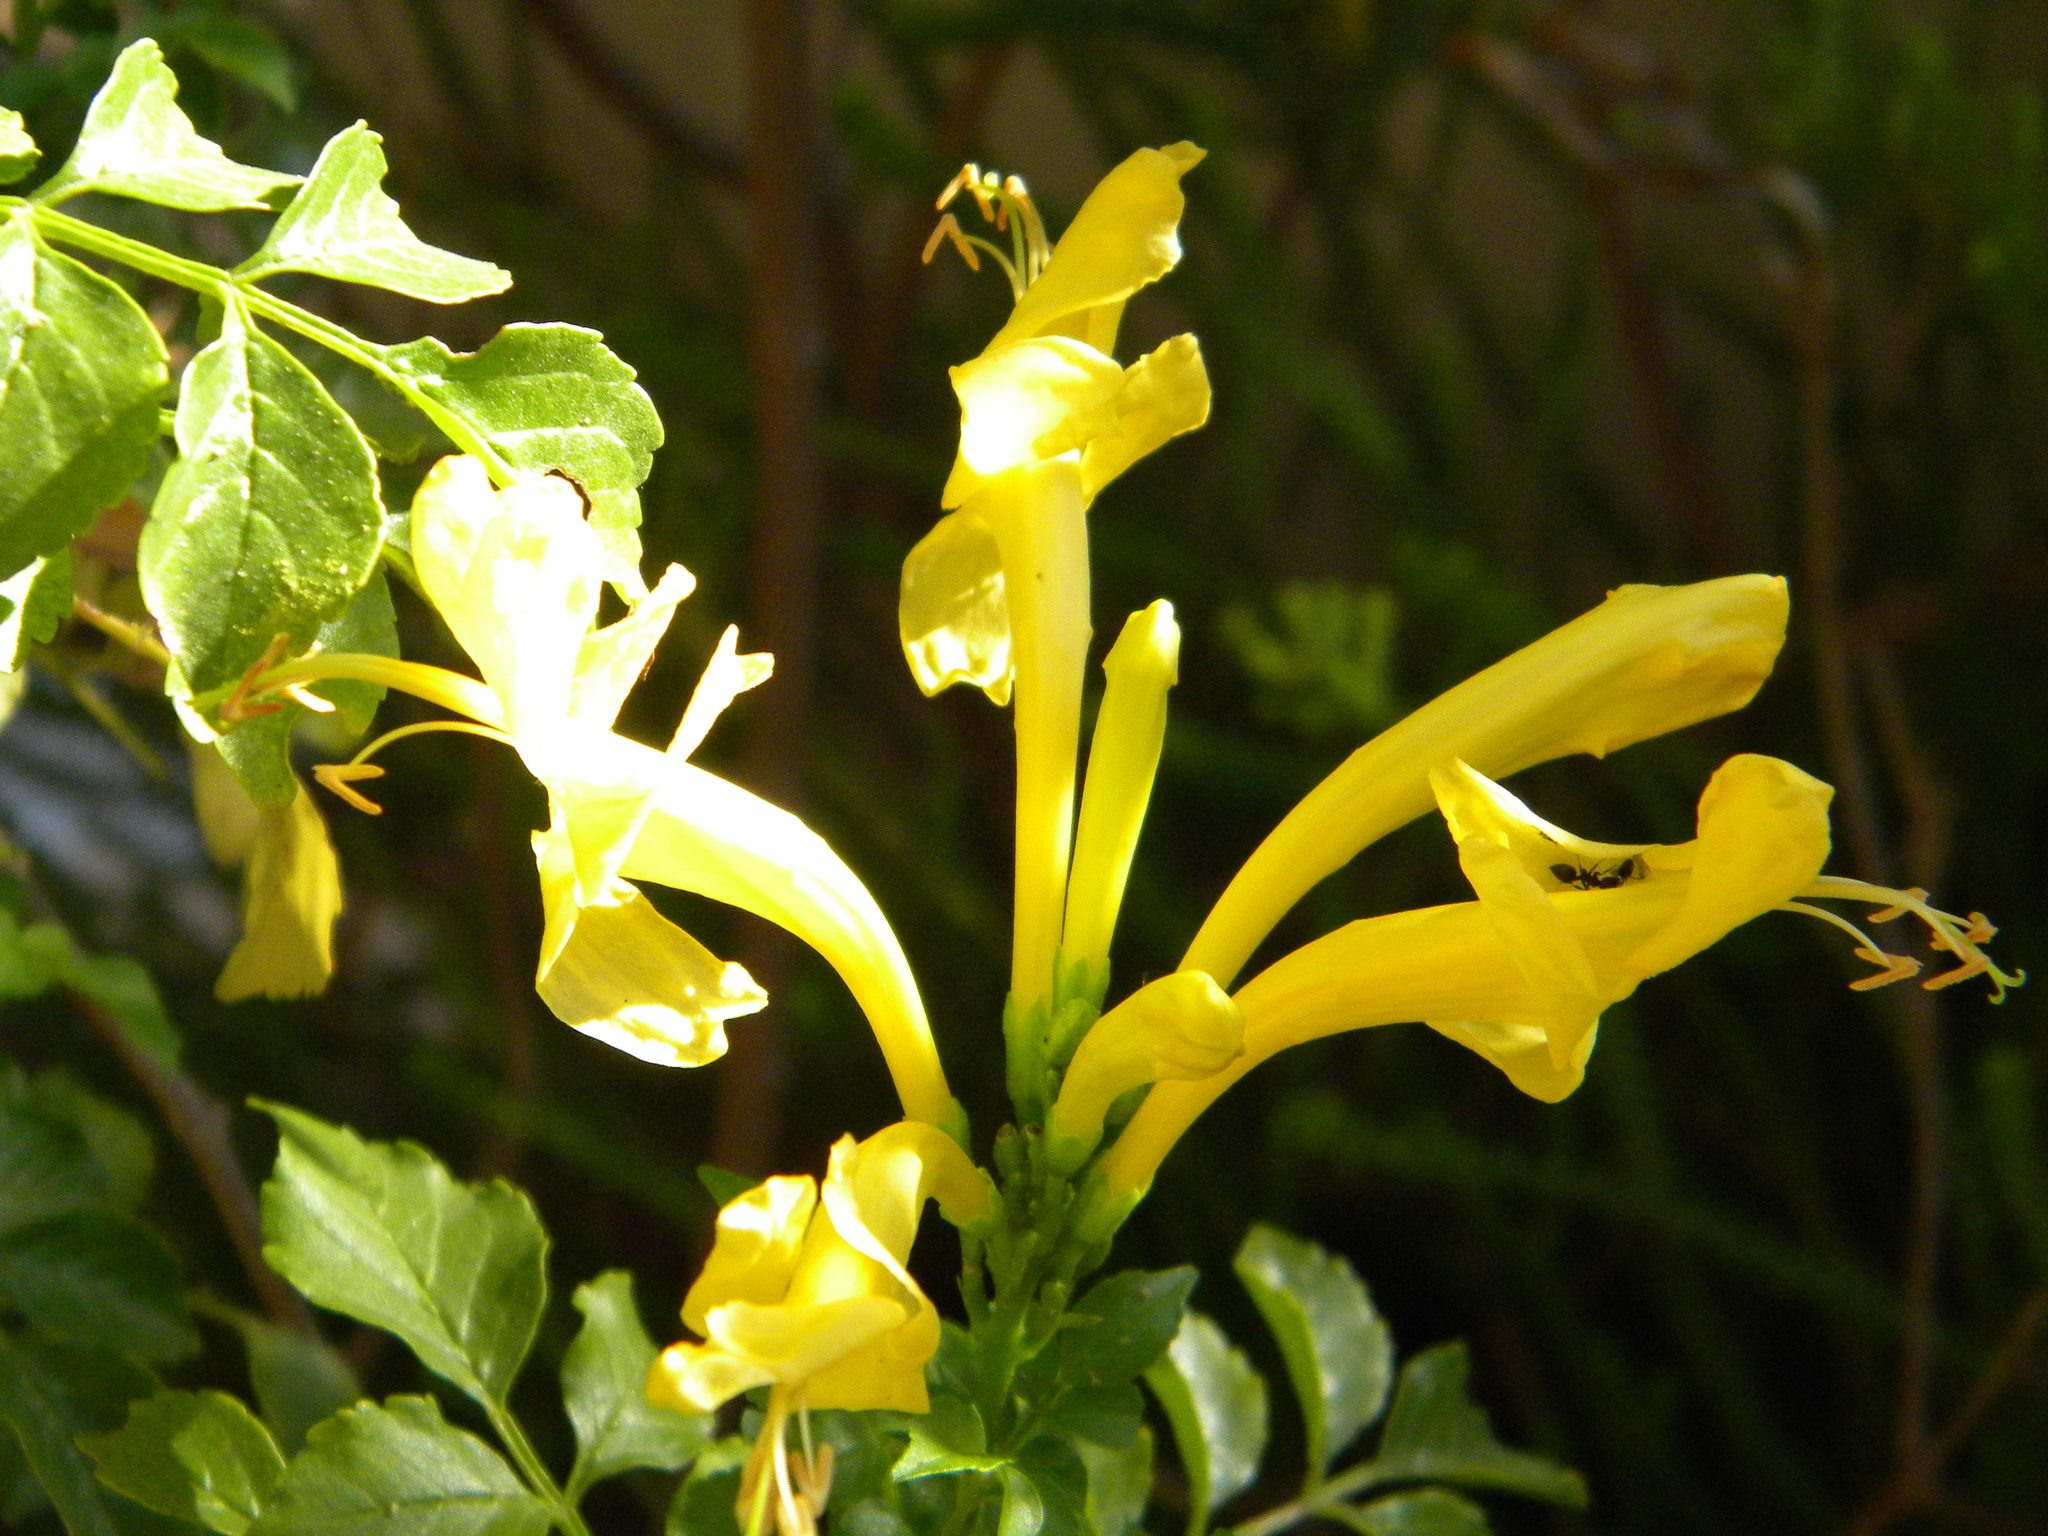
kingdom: Plantae
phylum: Tracheophyta
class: Magnoliopsida
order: Lamiales
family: Bignoniaceae
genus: Tecomaria
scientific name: Tecomaria capensis
